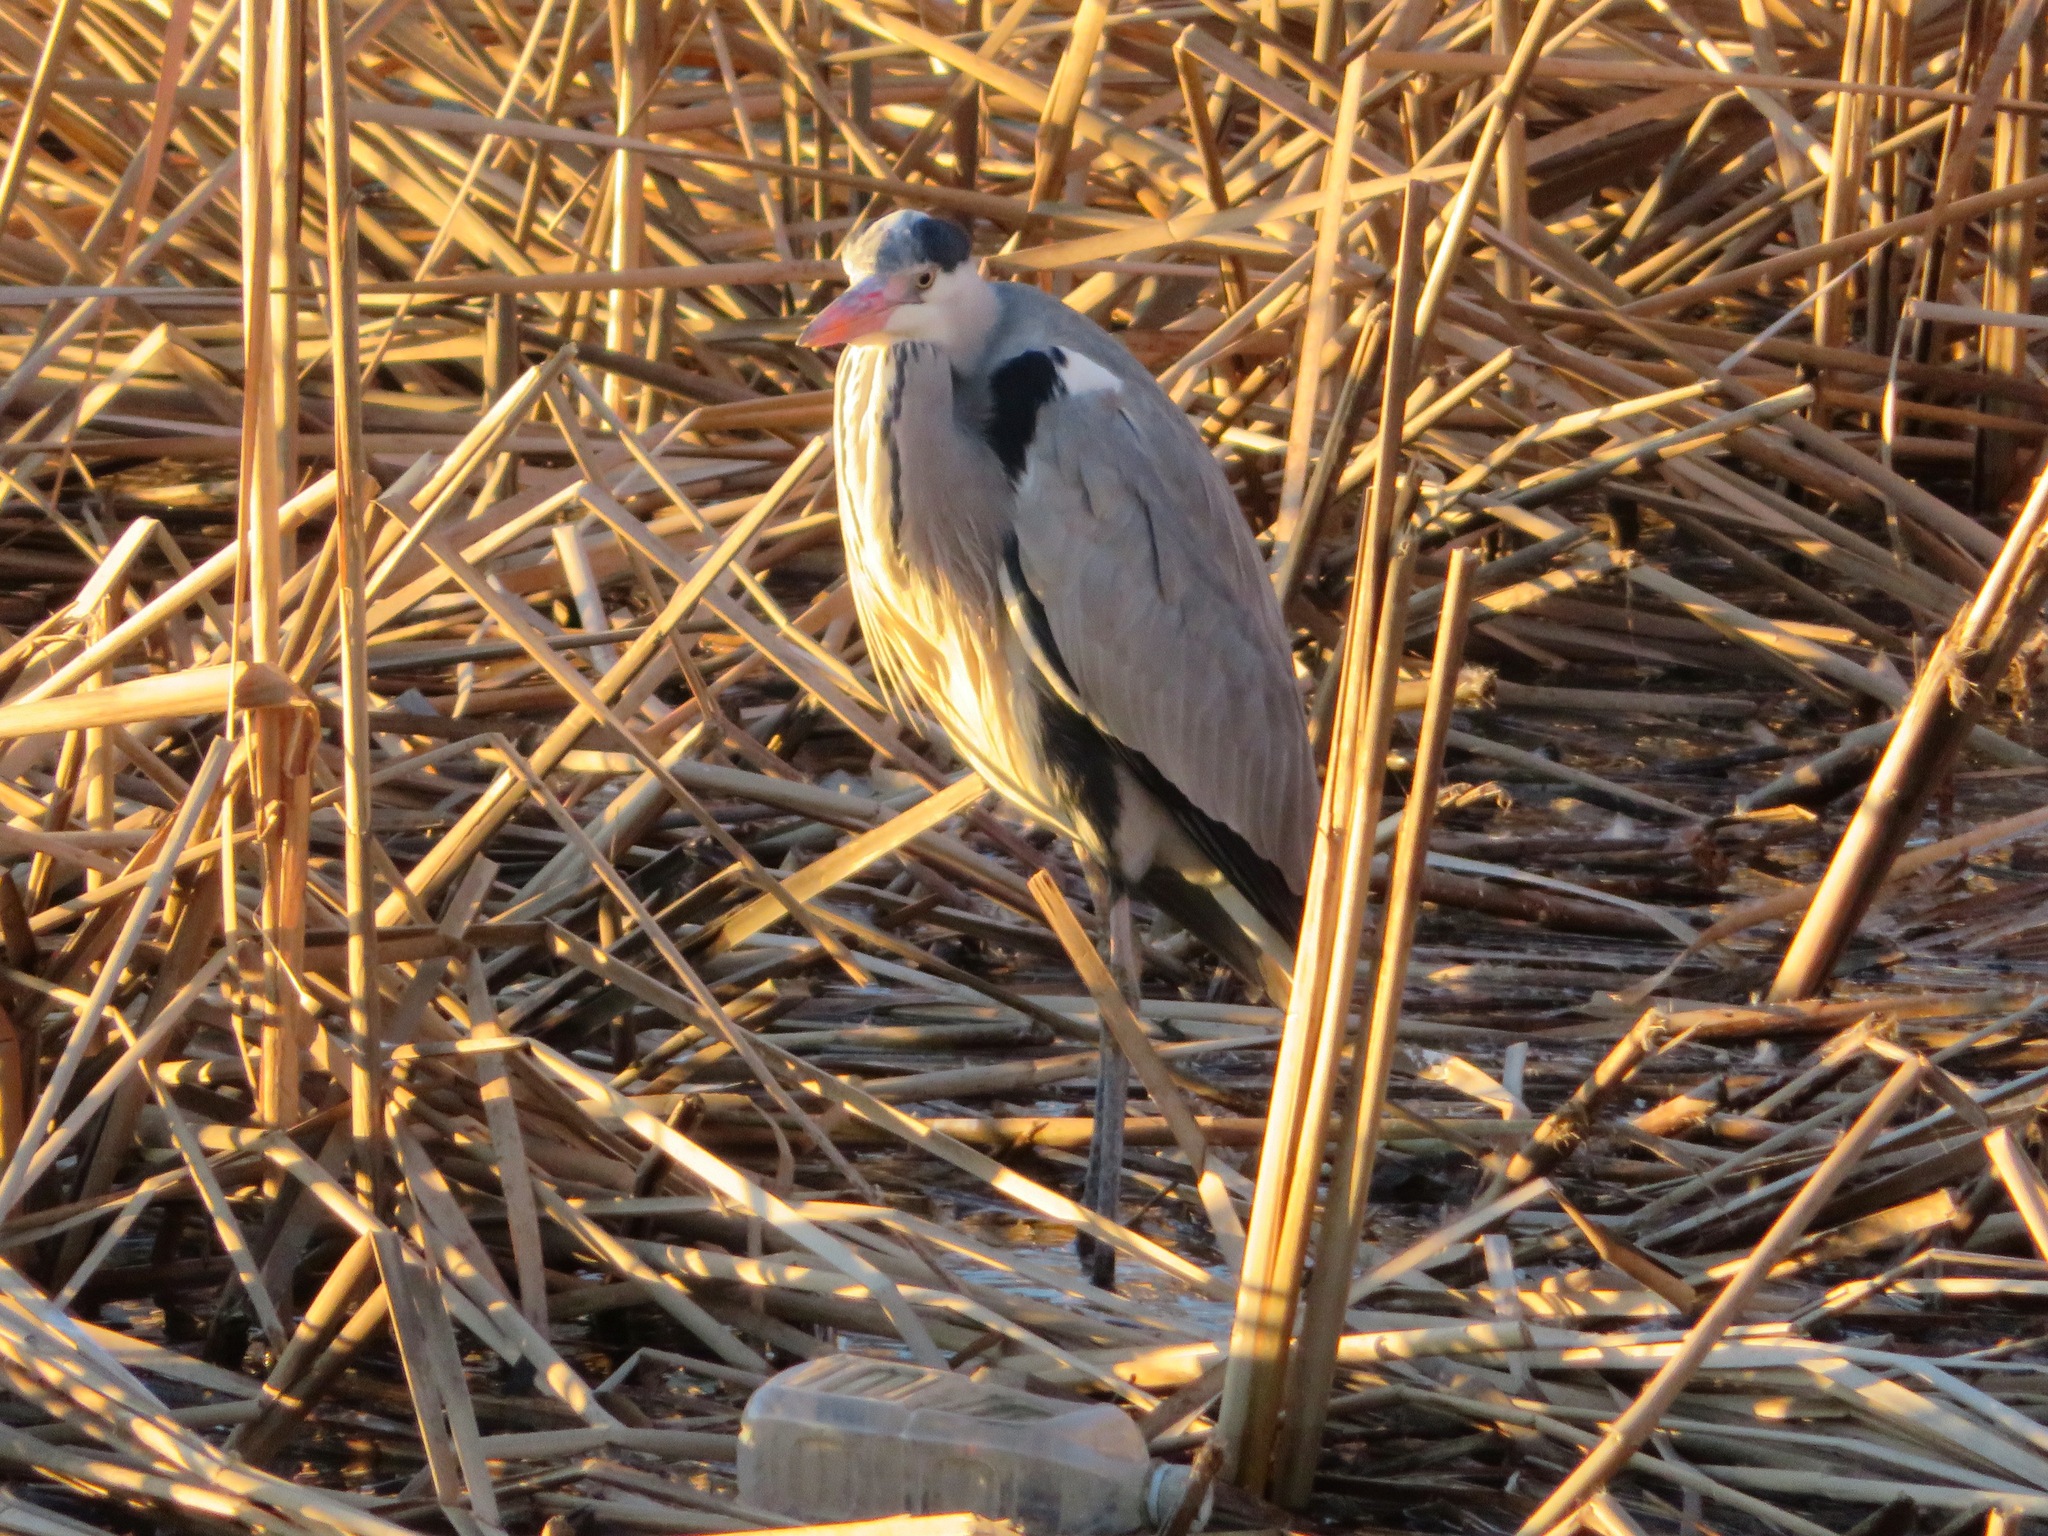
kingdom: Animalia
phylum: Chordata
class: Aves
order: Pelecaniformes
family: Ardeidae
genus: Ardea
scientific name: Ardea cinerea
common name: Grey heron
